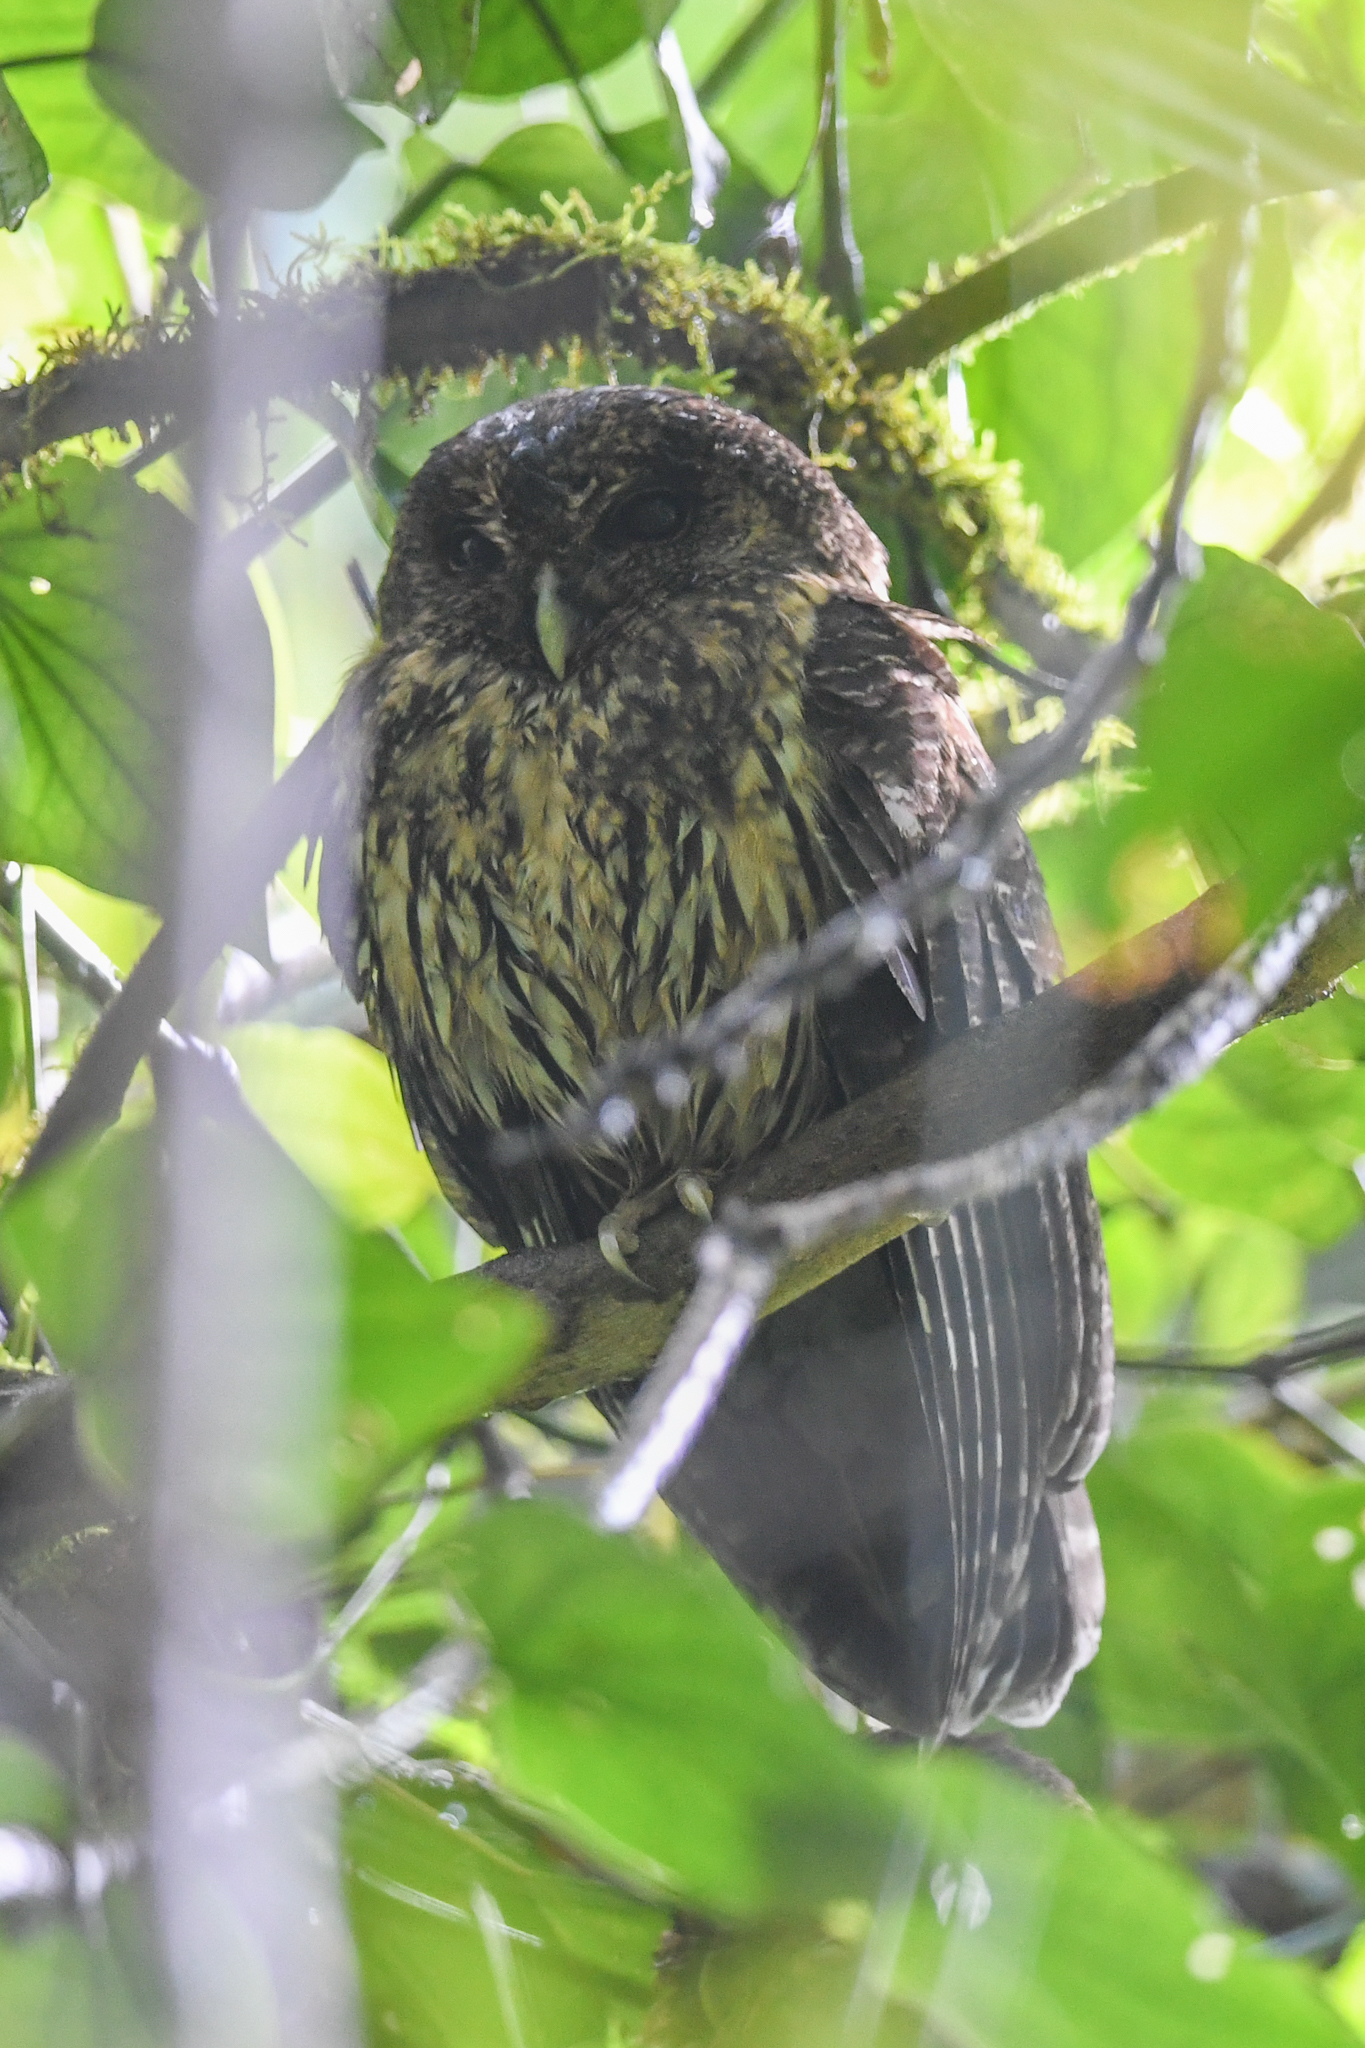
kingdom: Animalia
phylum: Chordata
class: Aves
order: Strigiformes
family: Strigidae
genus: Strix
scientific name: Strix virgata
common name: Mottled owl
